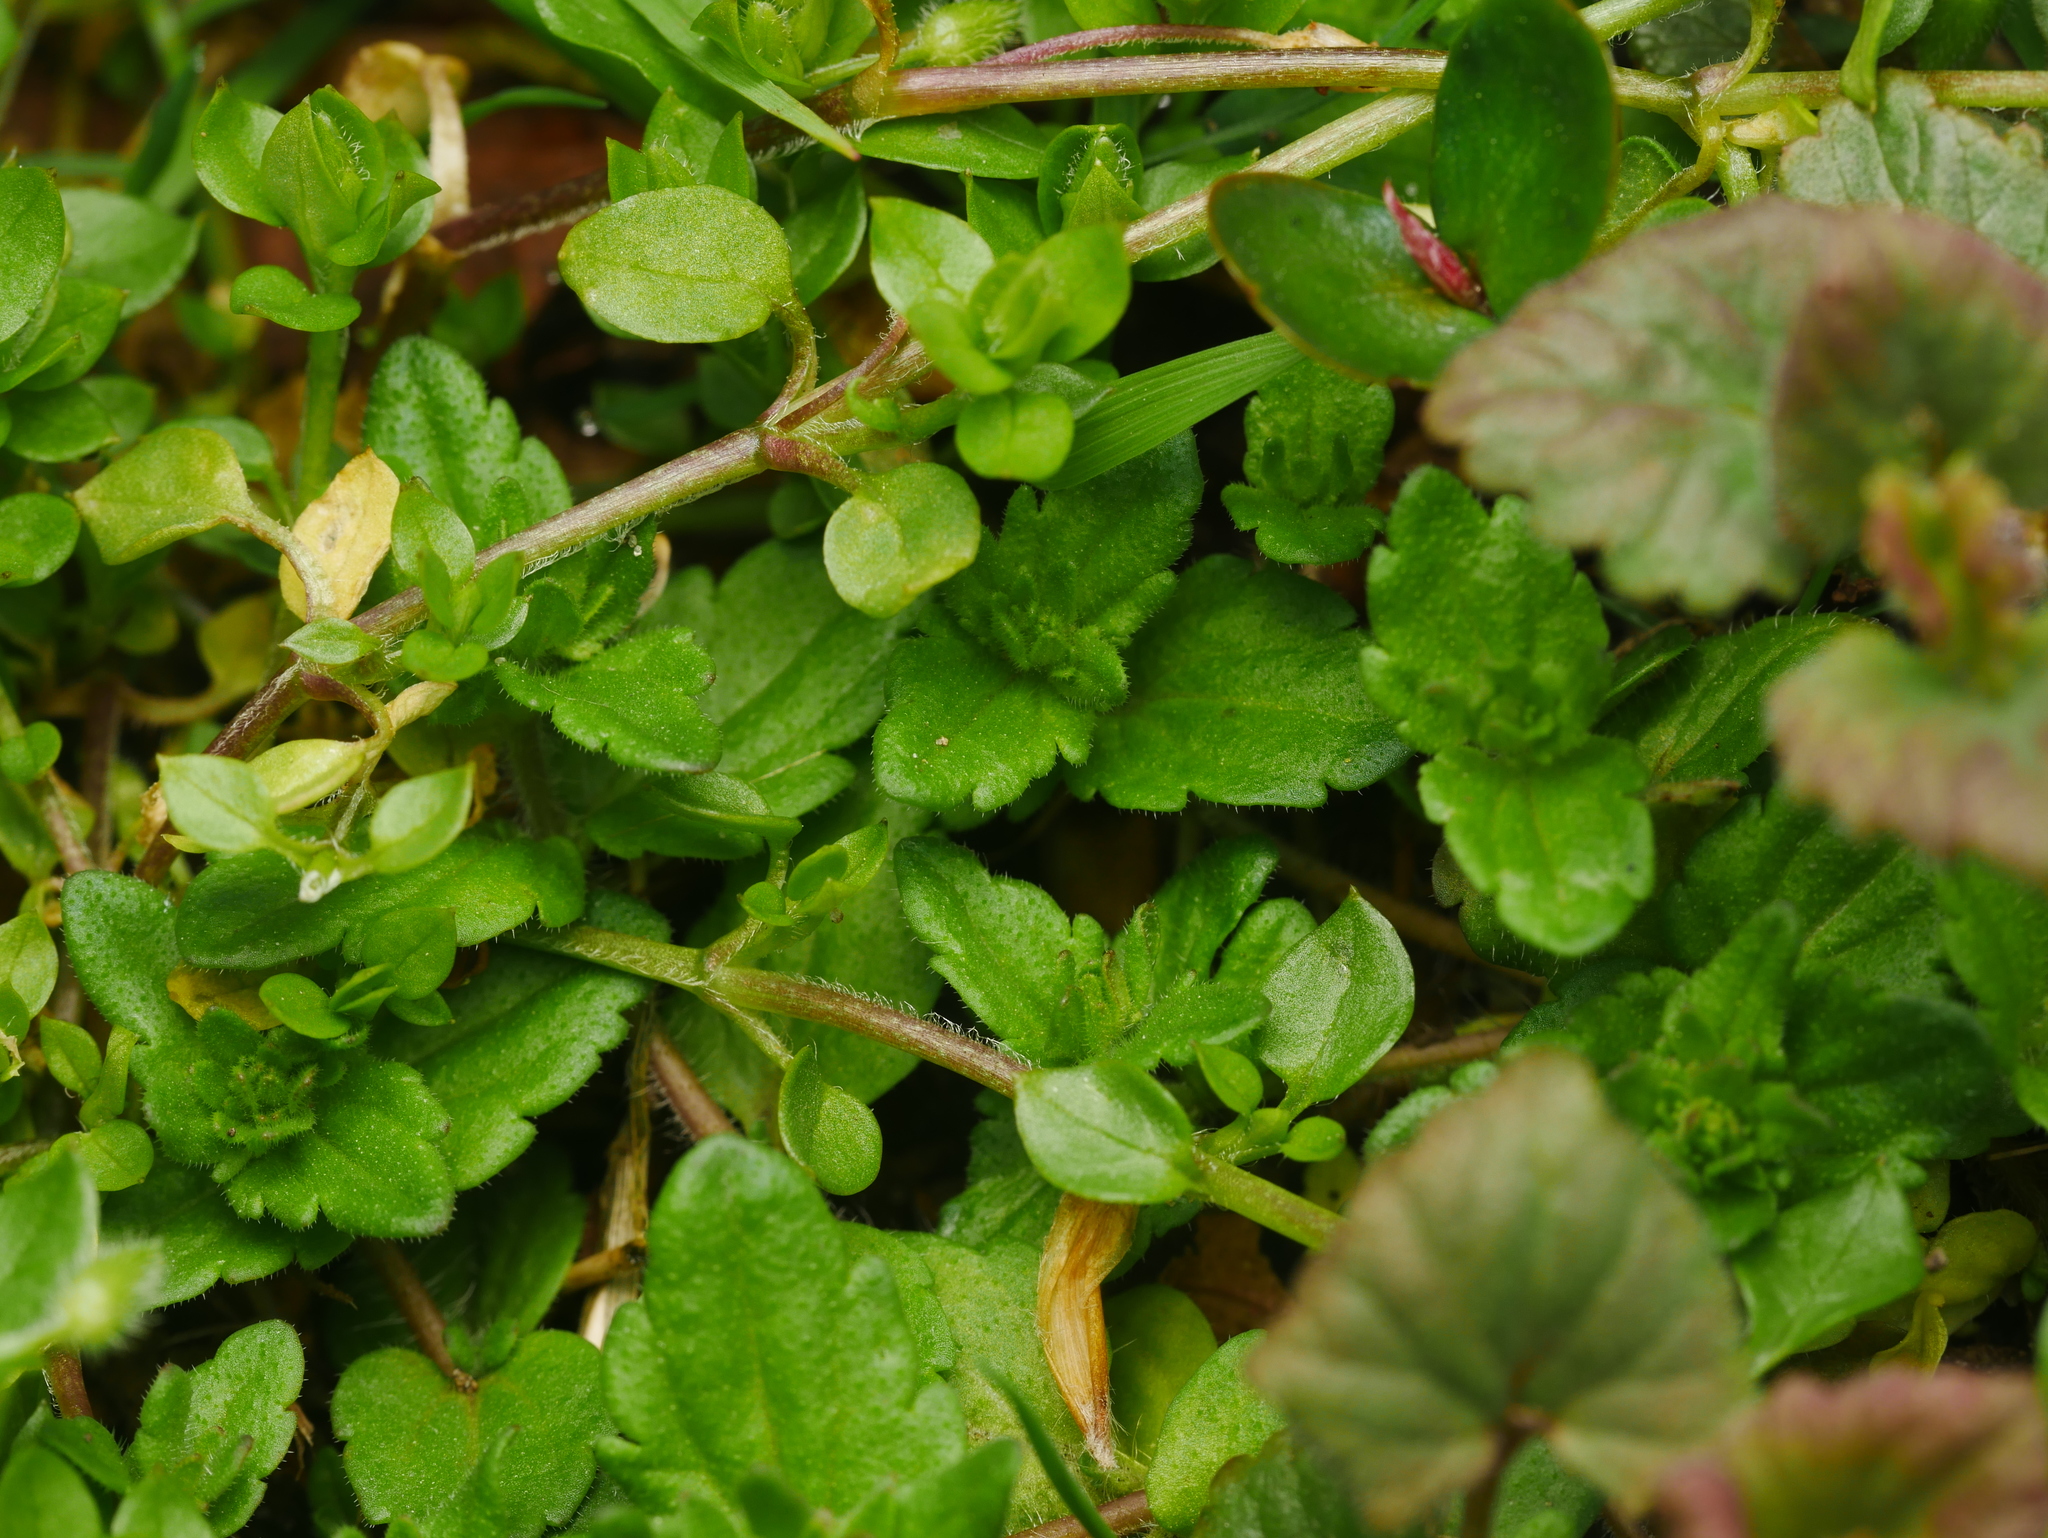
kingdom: Plantae
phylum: Tracheophyta
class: Magnoliopsida
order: Lamiales
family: Plantaginaceae
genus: Veronica
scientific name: Veronica arvensis
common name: Corn speedwell
